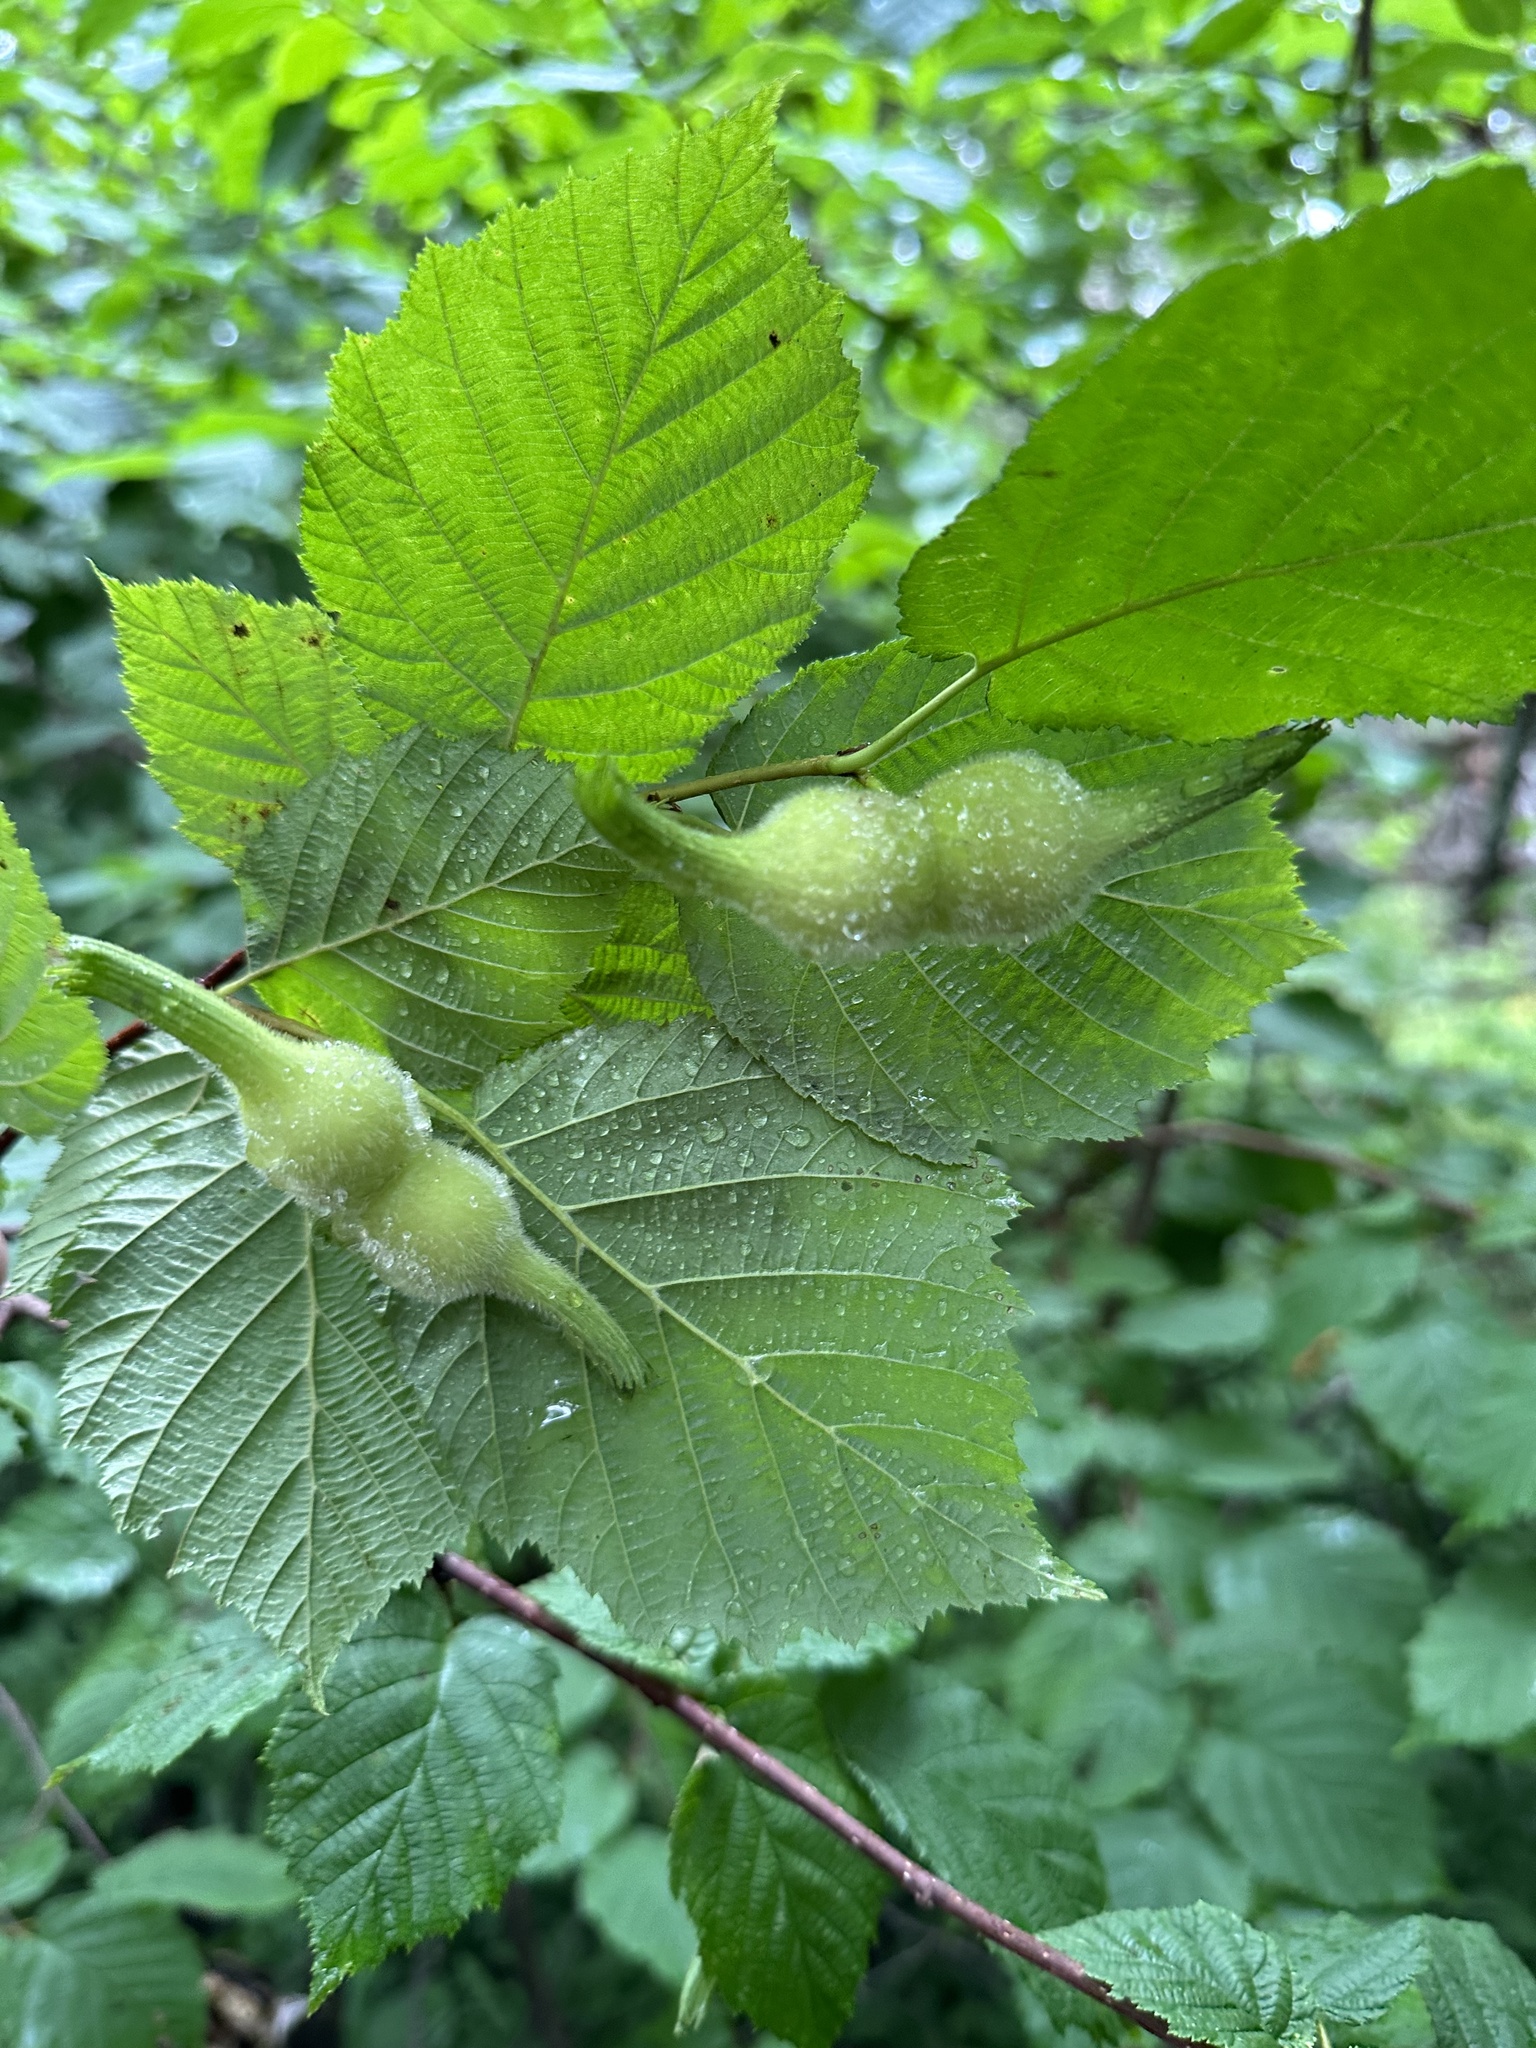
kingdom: Plantae
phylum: Tracheophyta
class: Magnoliopsida
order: Fagales
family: Betulaceae
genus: Corylus
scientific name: Corylus cornuta
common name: Beaked hazel
